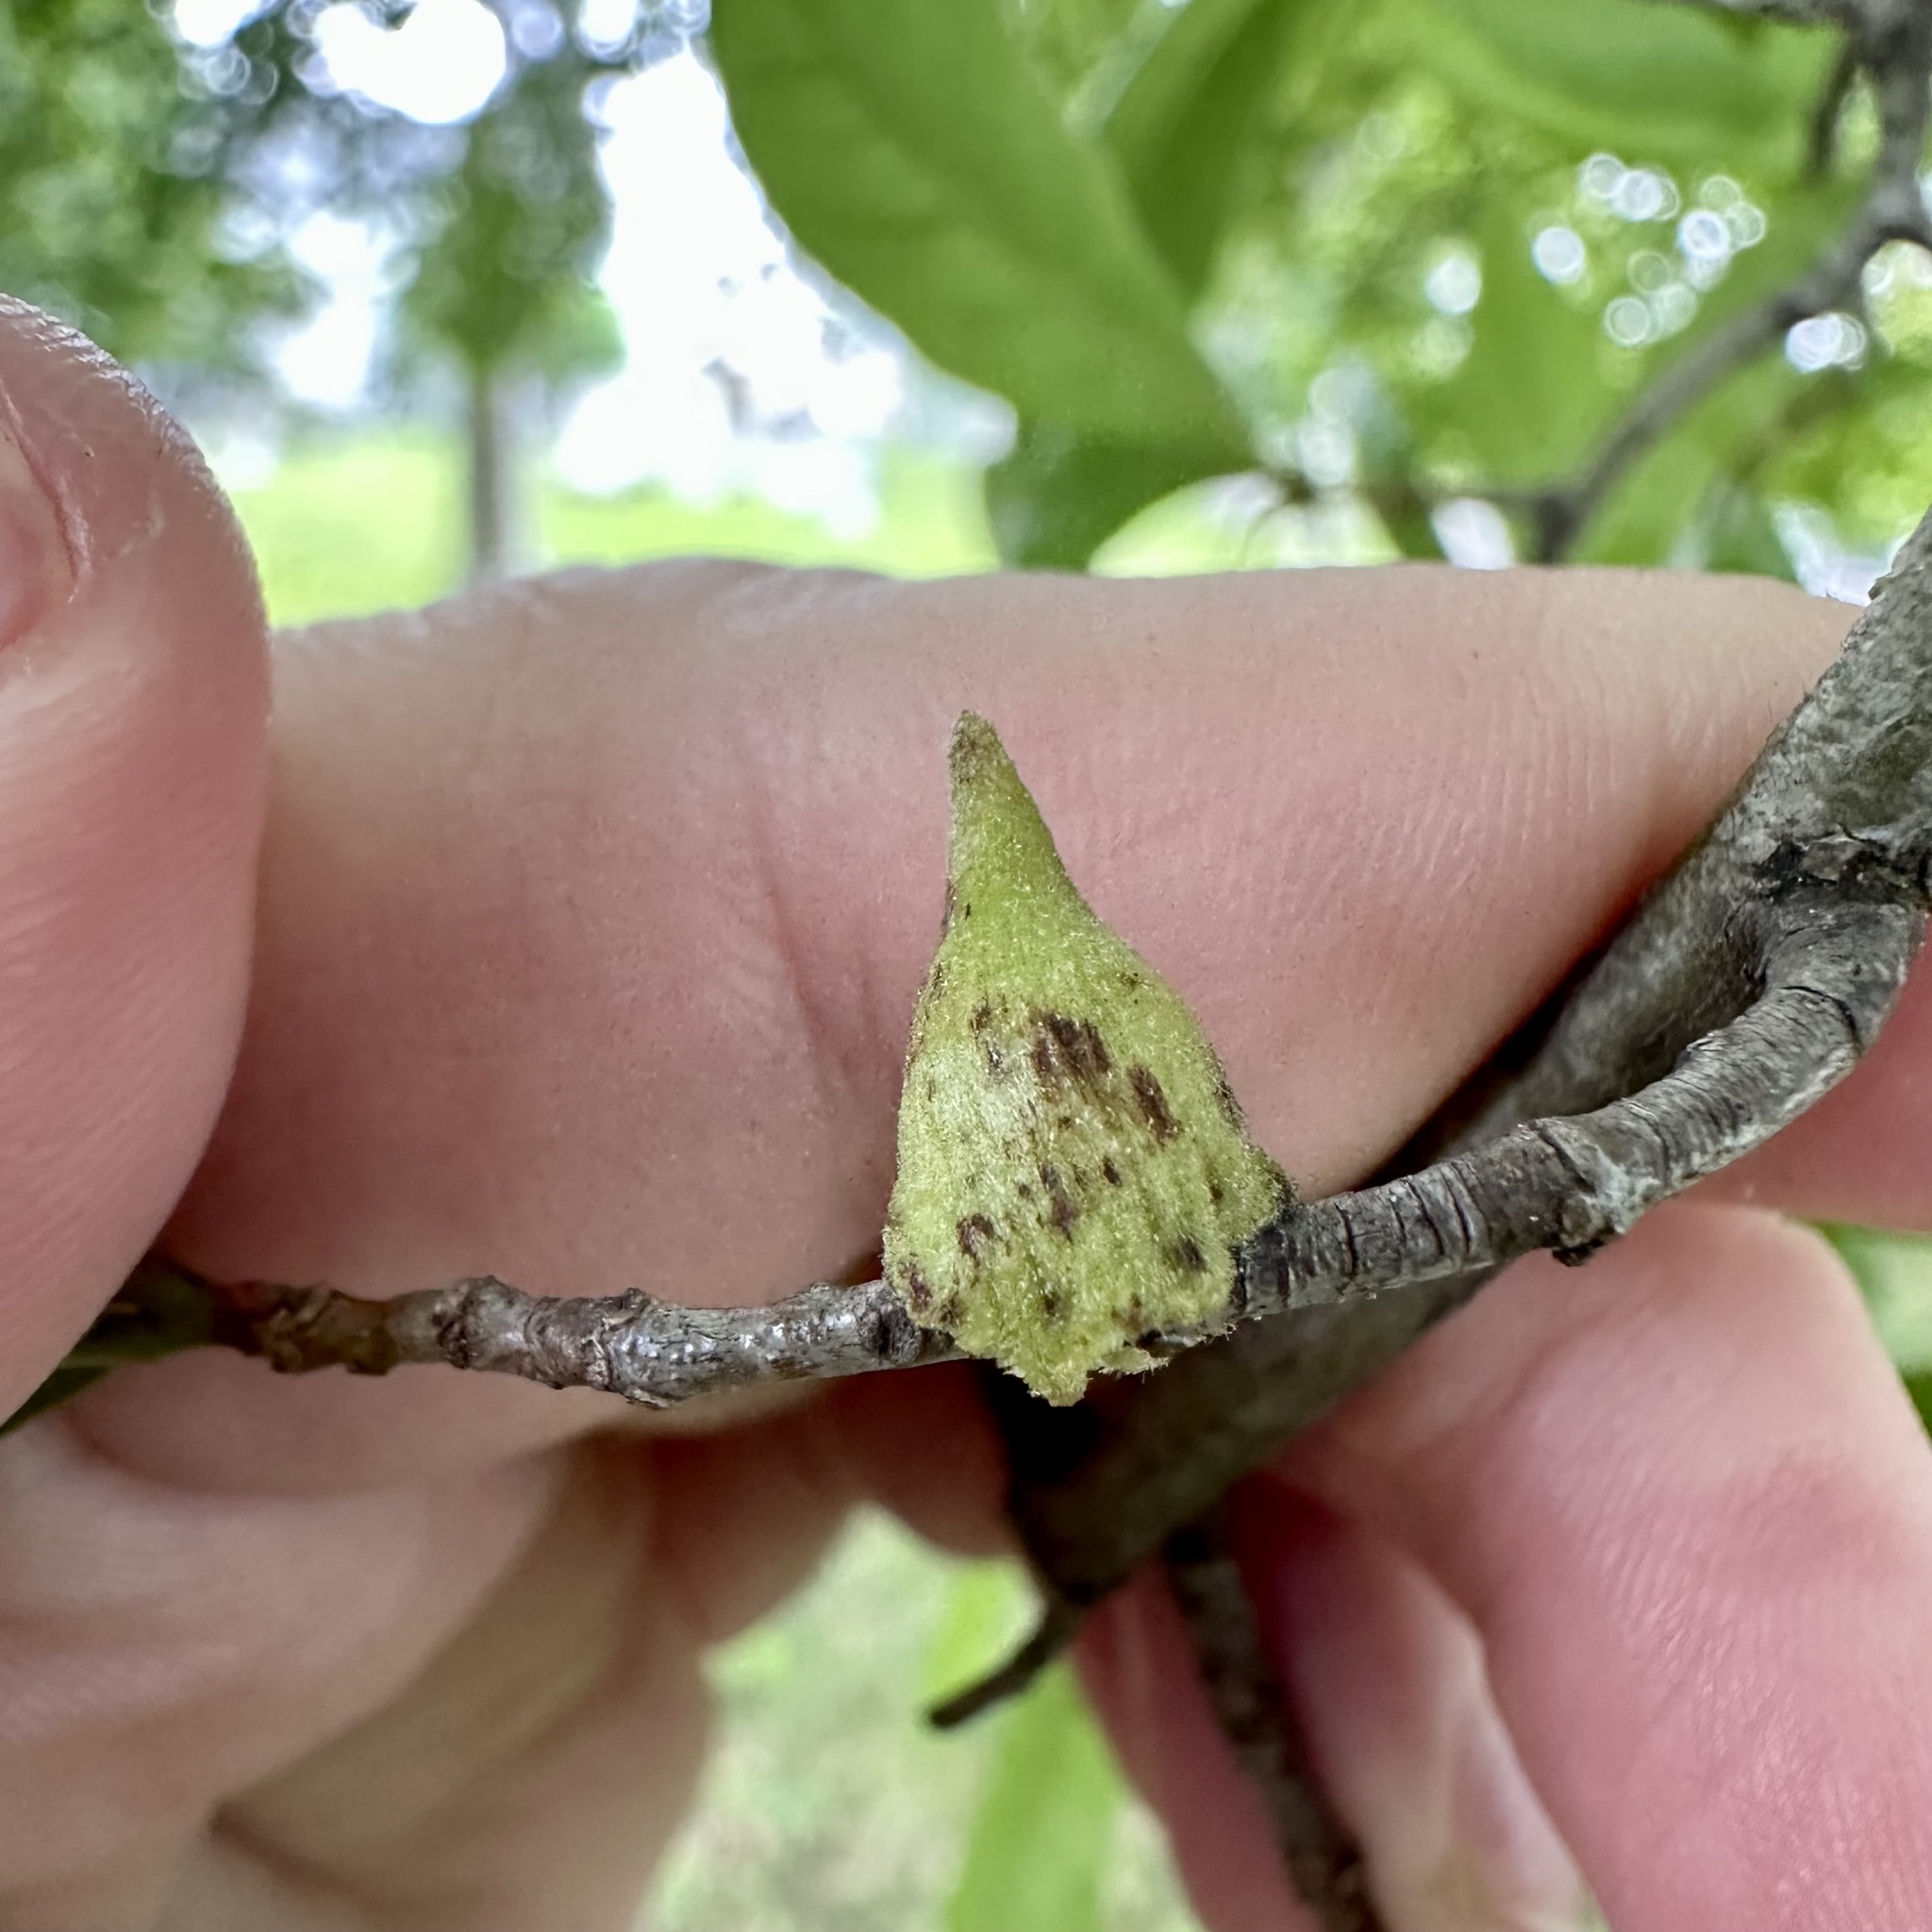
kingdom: Animalia
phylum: Arthropoda
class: Insecta
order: Hymenoptera
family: Cynipidae
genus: Callirhytis
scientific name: Callirhytis
